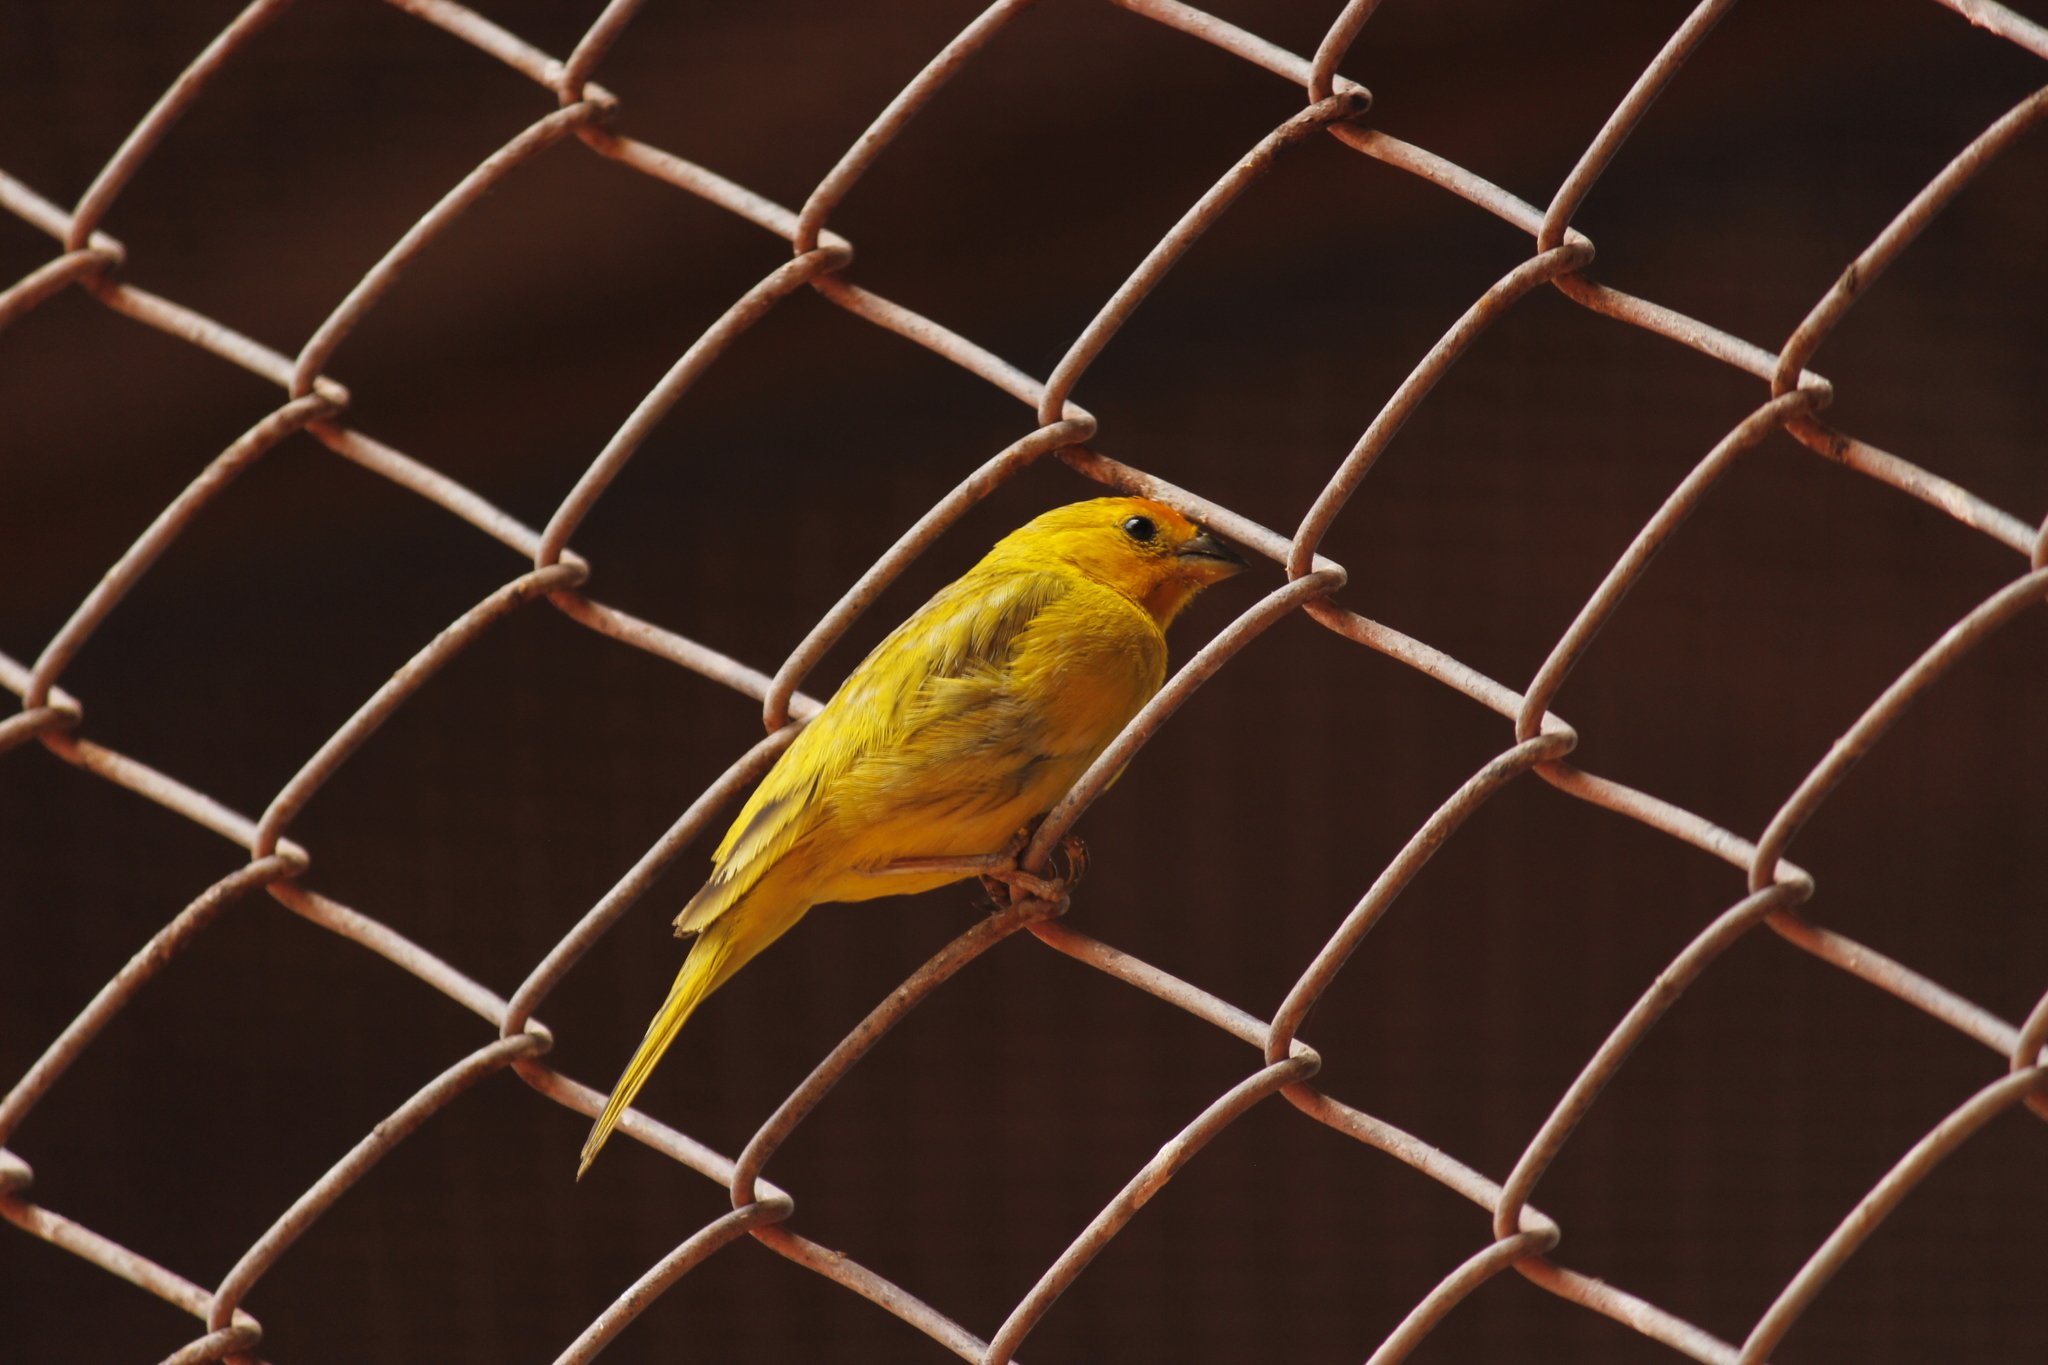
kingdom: Animalia
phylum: Chordata
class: Aves
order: Passeriformes
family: Thraupidae
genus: Sicalis
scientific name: Sicalis flaveola
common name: Saffron finch
